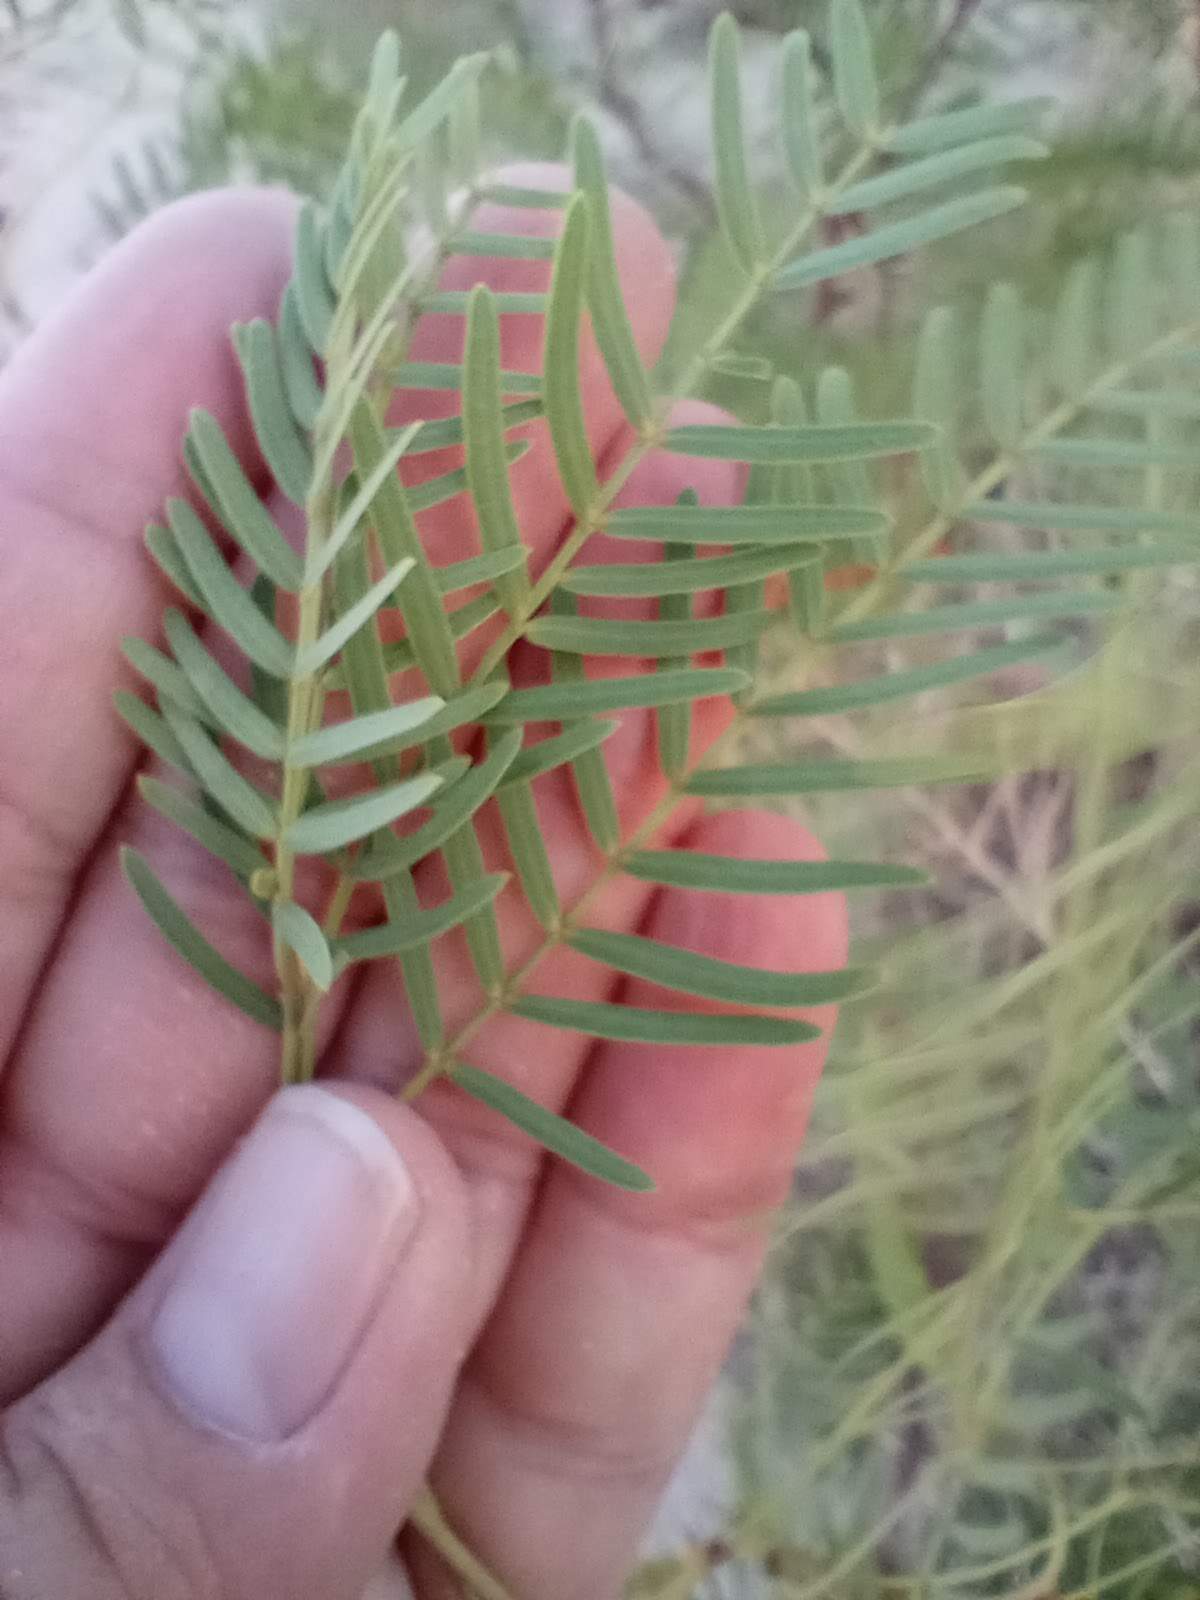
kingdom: Plantae
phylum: Tracheophyta
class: Magnoliopsida
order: Fabales
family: Fabaceae
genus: Prosopis
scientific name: Prosopis pubescens
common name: Screw-bean
